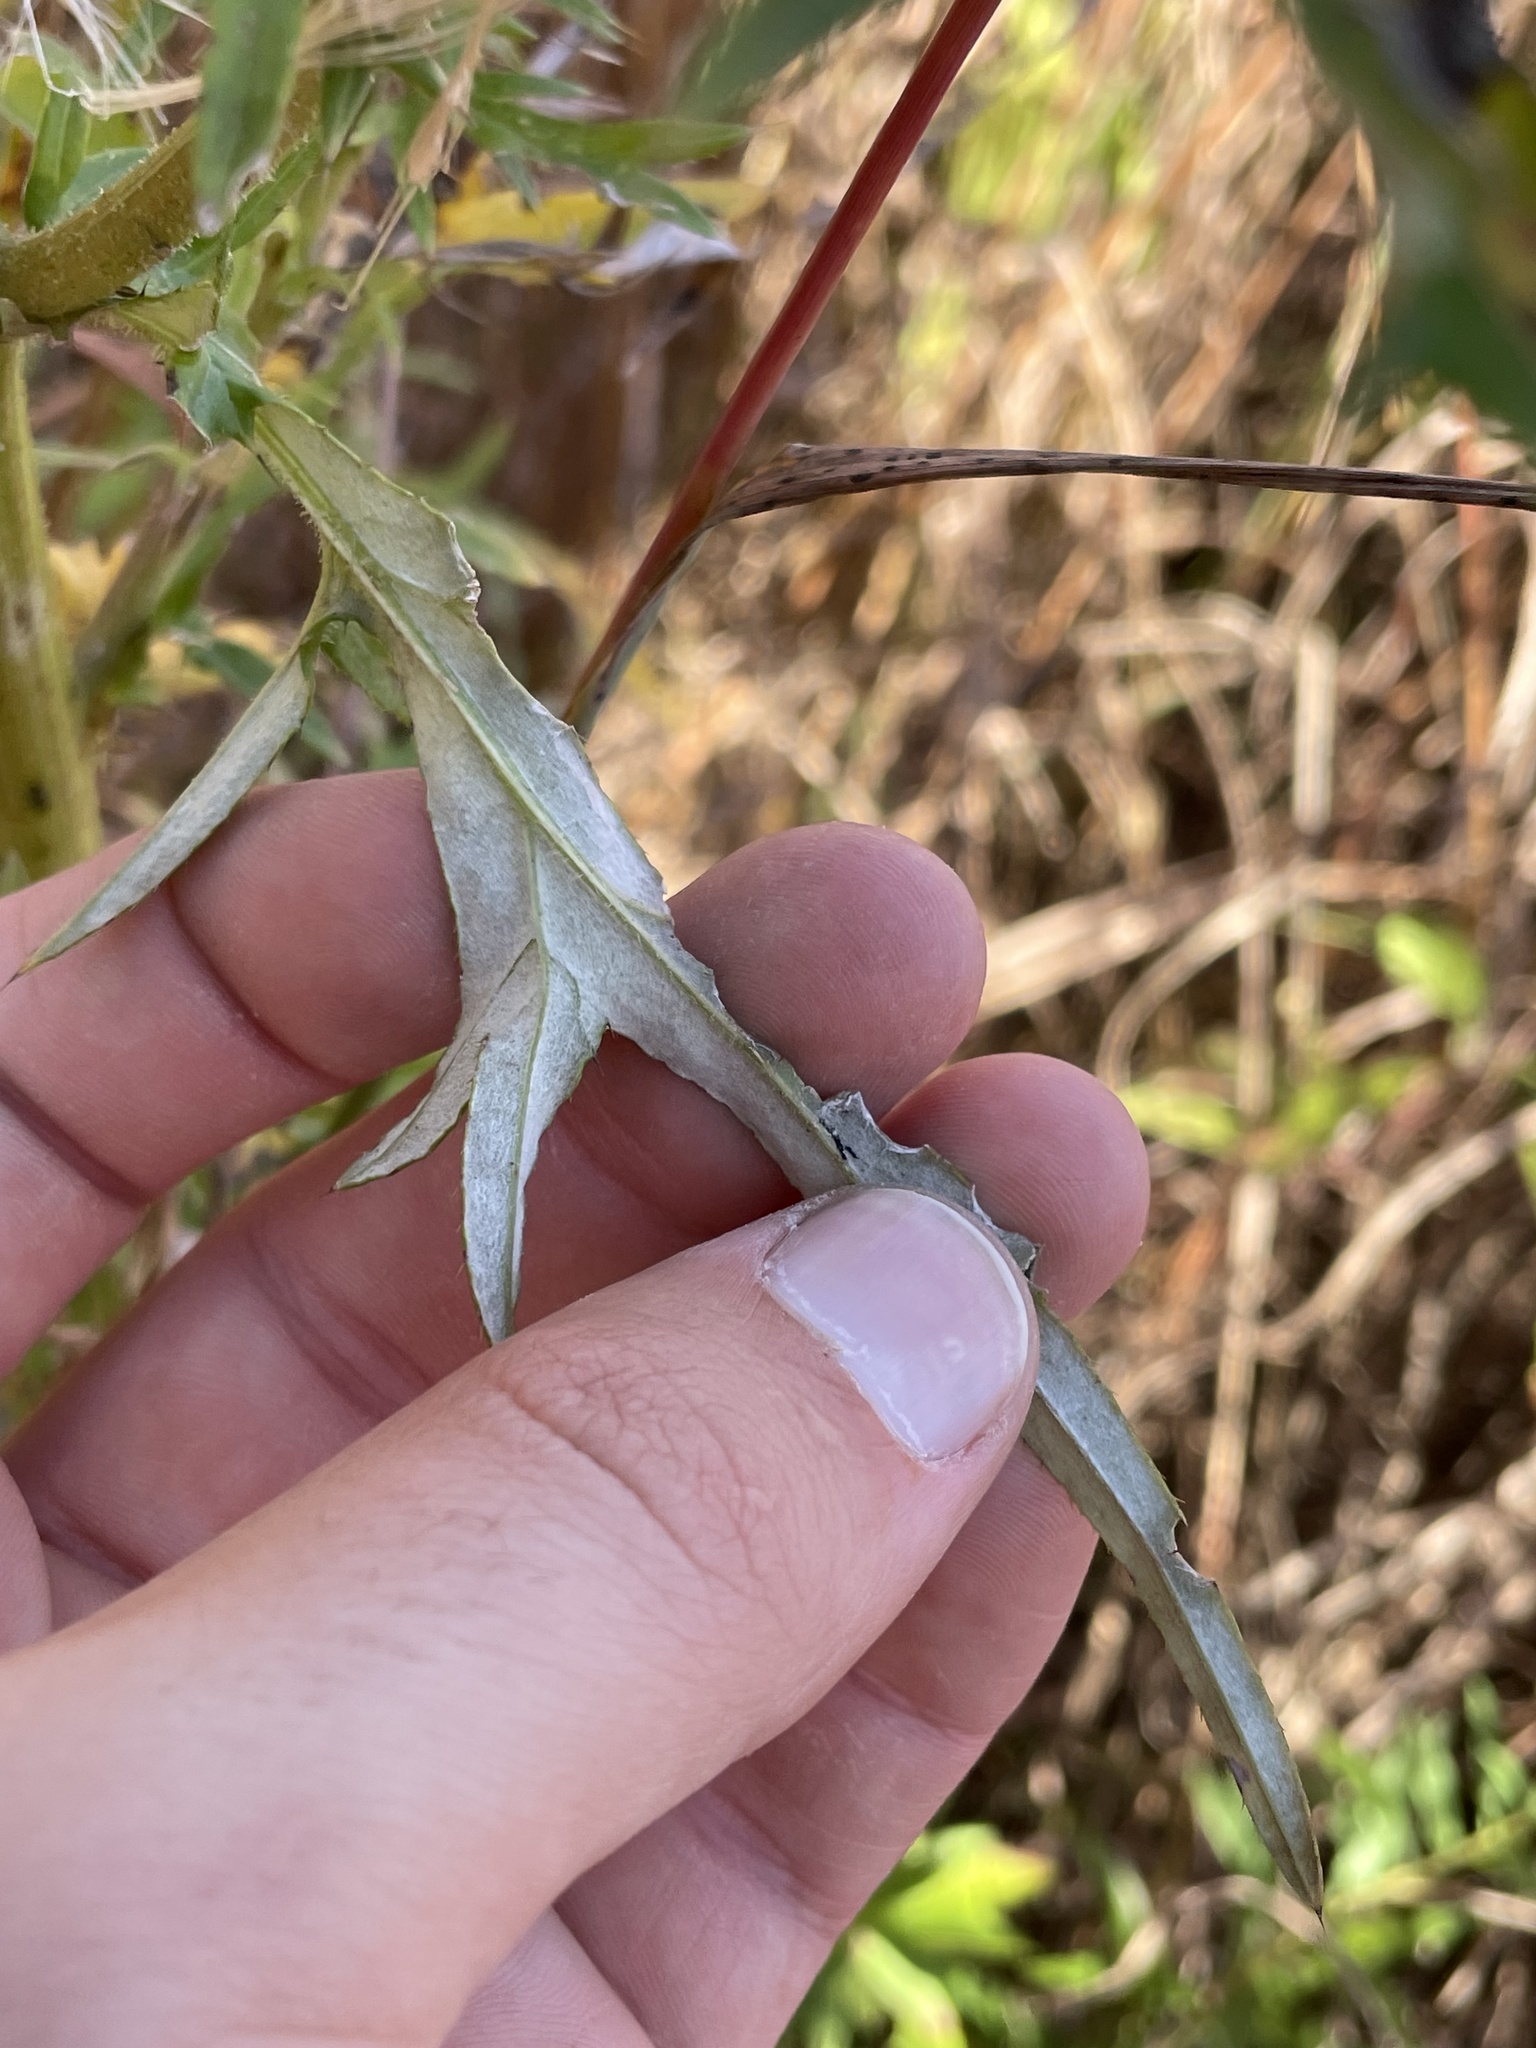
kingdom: Plantae
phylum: Tracheophyta
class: Magnoliopsida
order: Asterales
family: Asteraceae
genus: Cirsium
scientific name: Cirsium discolor
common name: Field thistle
